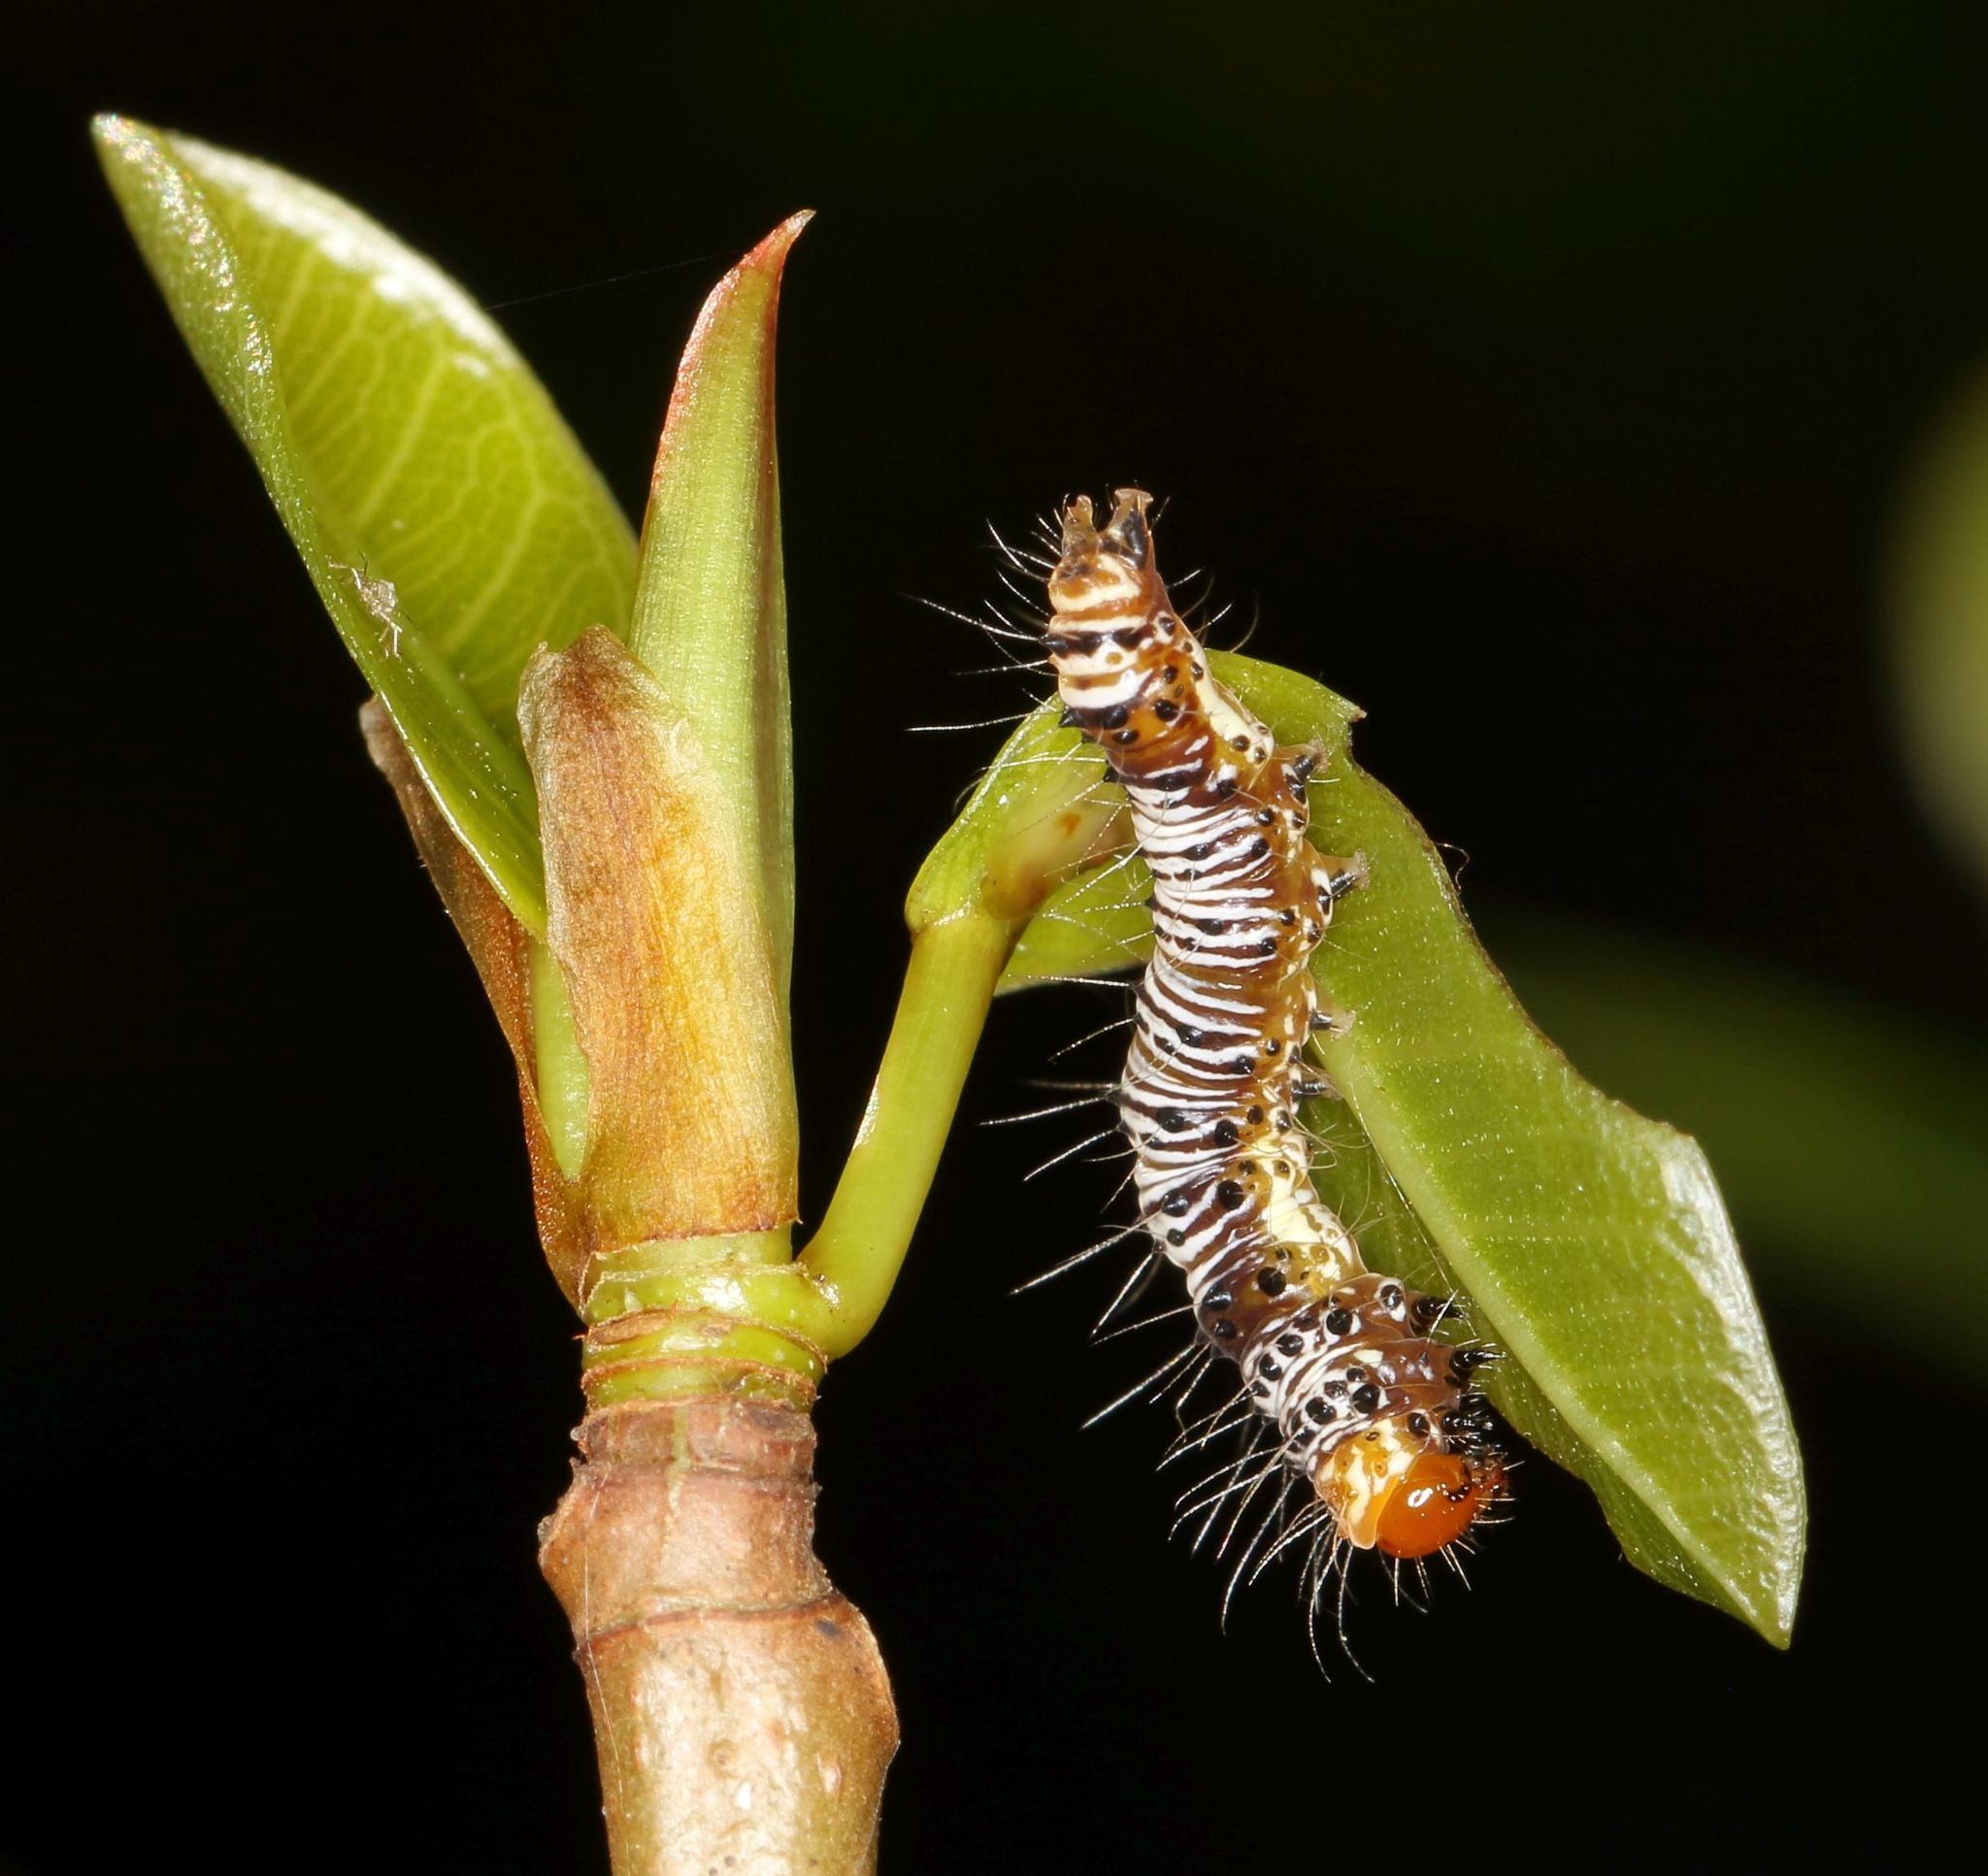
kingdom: Animalia
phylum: Arthropoda
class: Insecta
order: Lepidoptera
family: Erebidae
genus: Asota
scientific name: Asota speciosa
